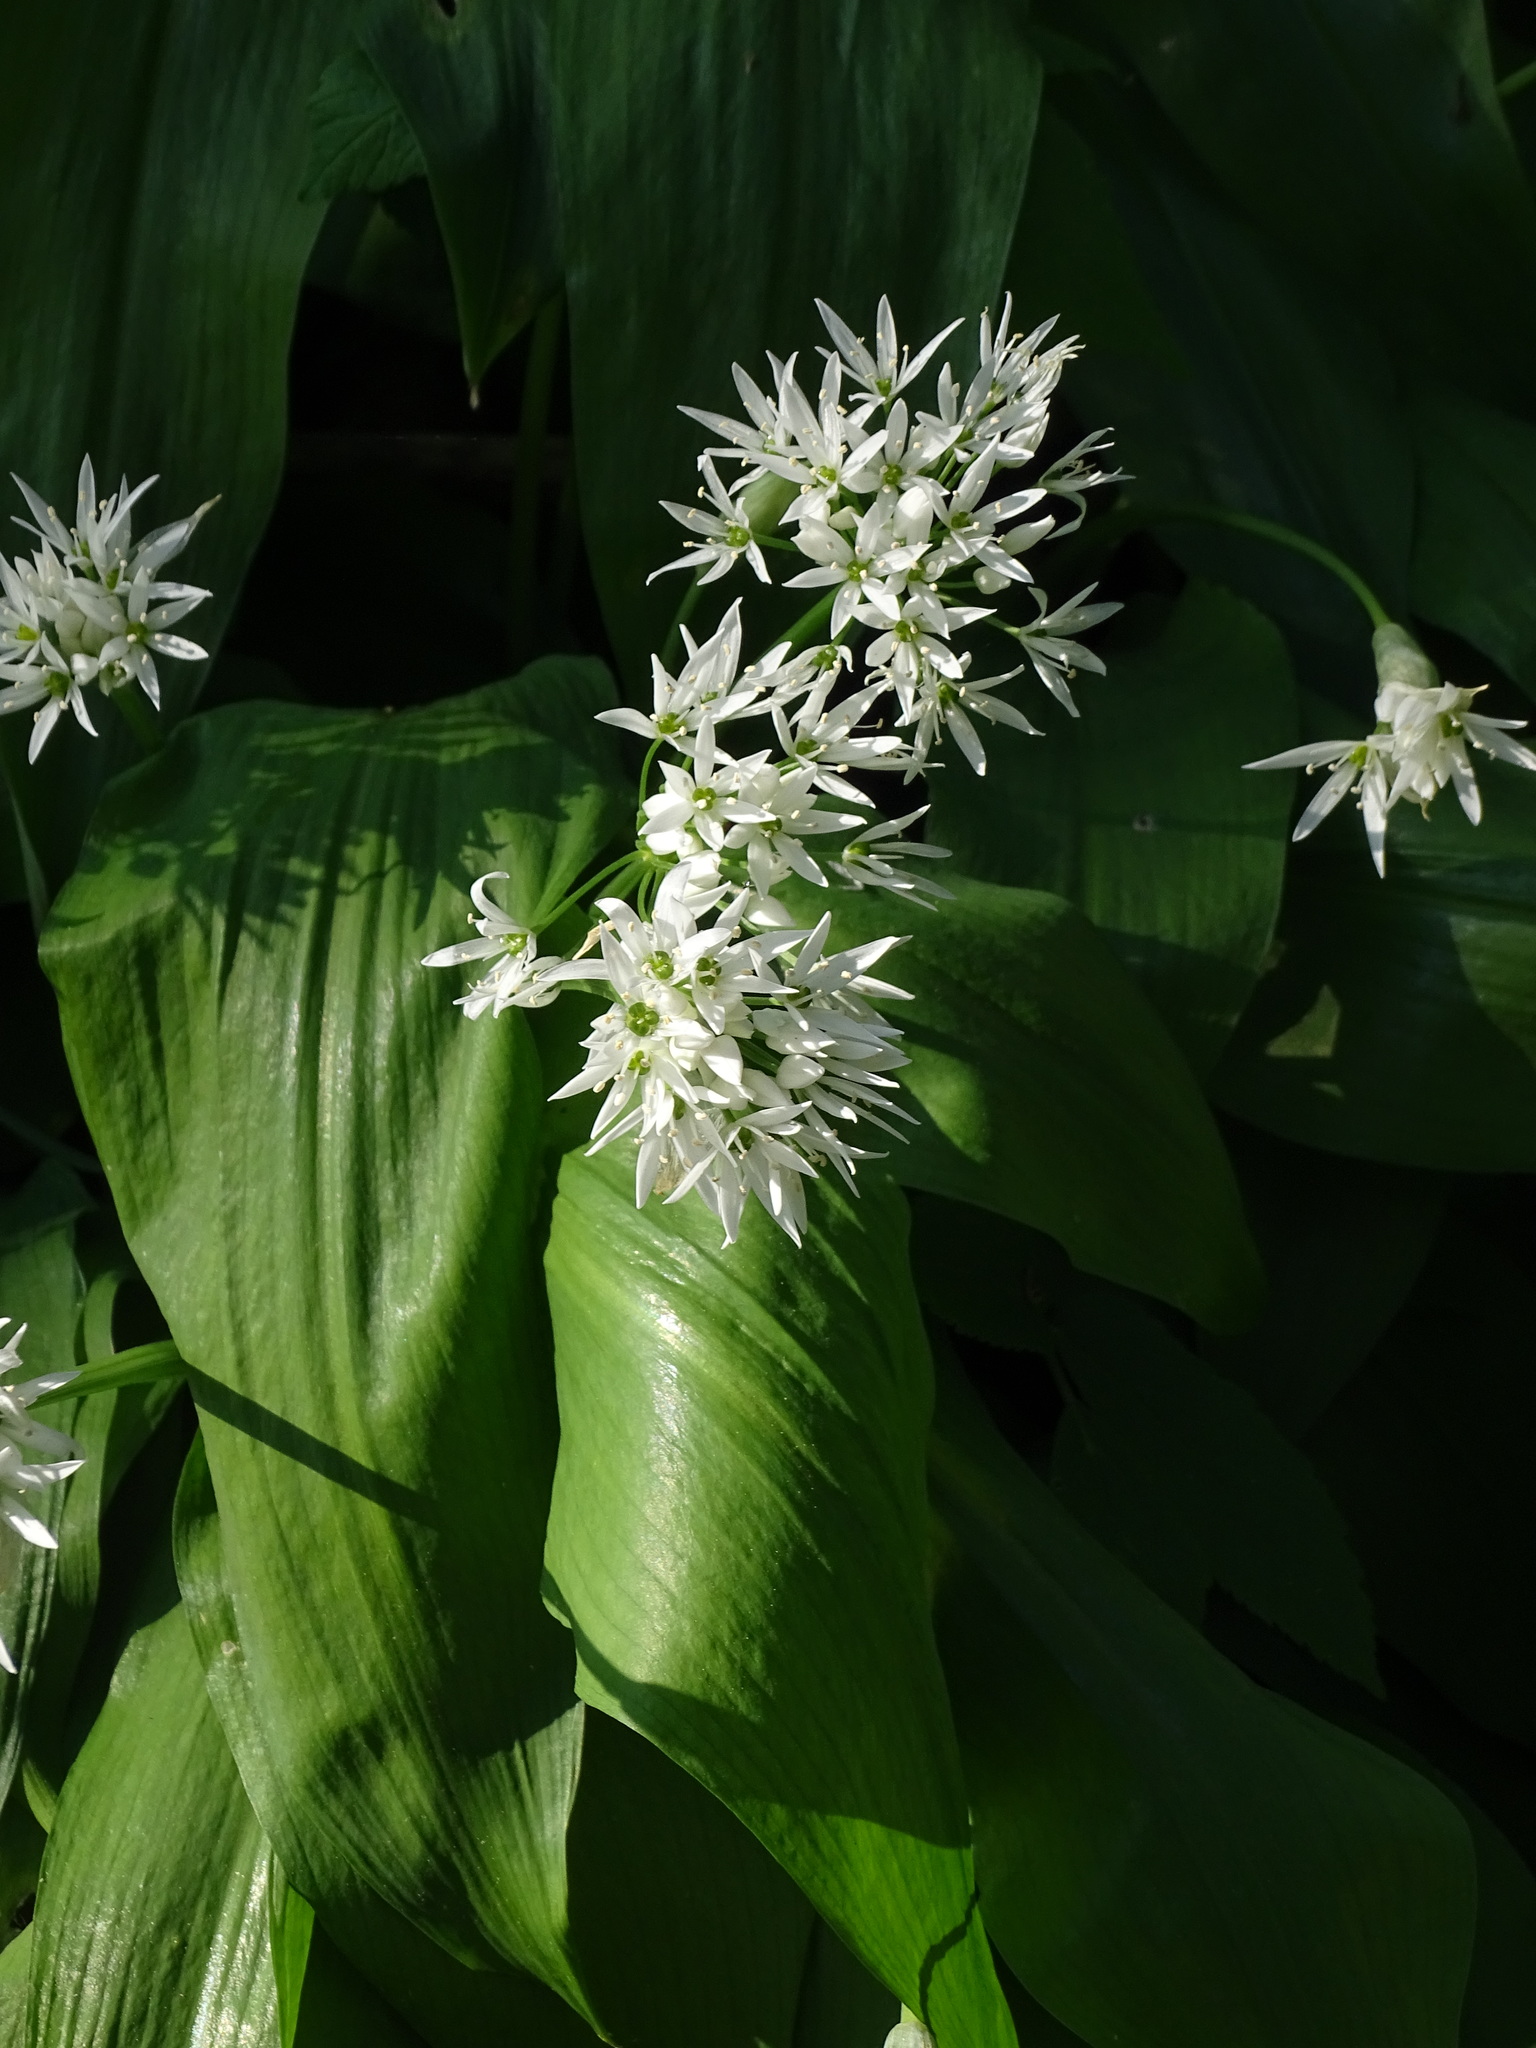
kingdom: Plantae
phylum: Tracheophyta
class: Liliopsida
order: Asparagales
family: Amaryllidaceae
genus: Allium
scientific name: Allium ursinum
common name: Ramsons
